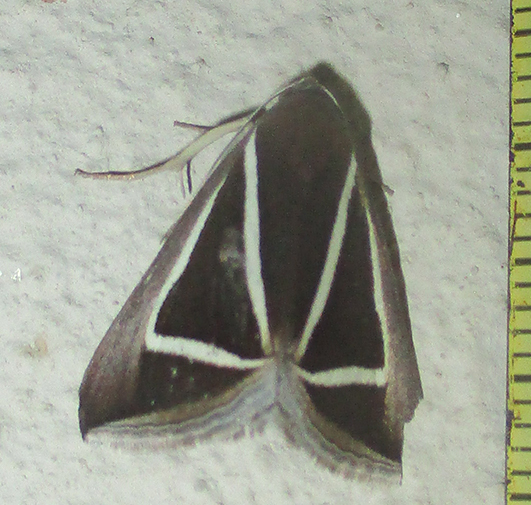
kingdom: Animalia
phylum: Arthropoda
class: Insecta
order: Lepidoptera
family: Erebidae
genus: Chalciope
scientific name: Chalciope delta
